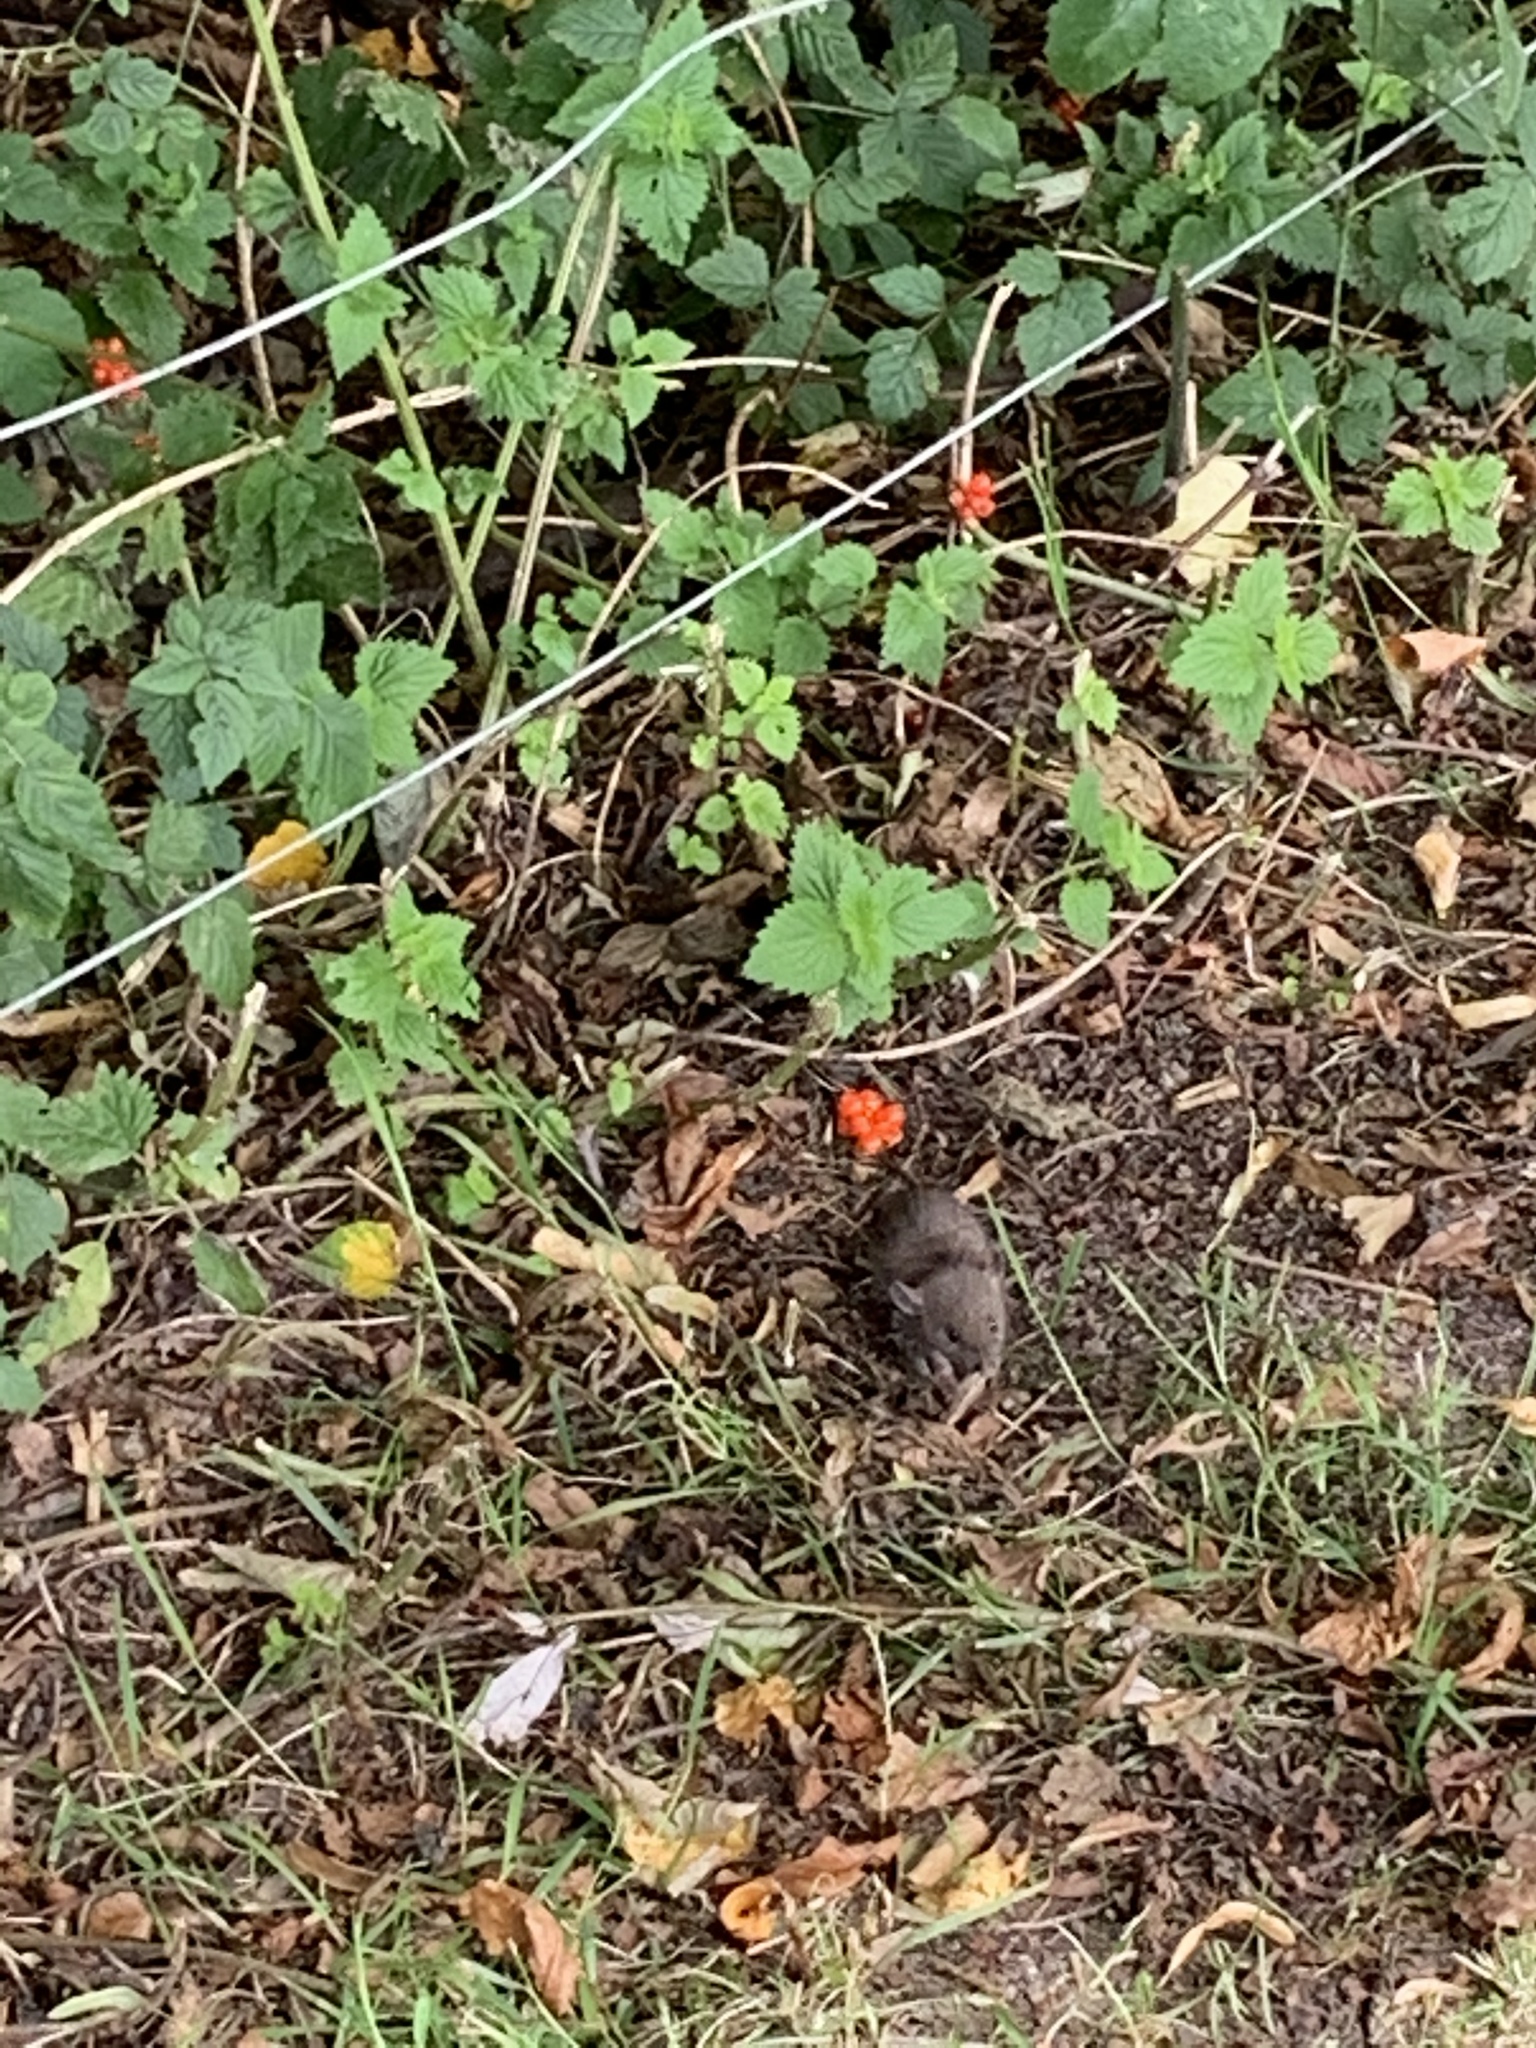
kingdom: Animalia
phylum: Chordata
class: Mammalia
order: Rodentia
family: Muridae
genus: Rattus
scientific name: Rattus norvegicus
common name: Brown rat
